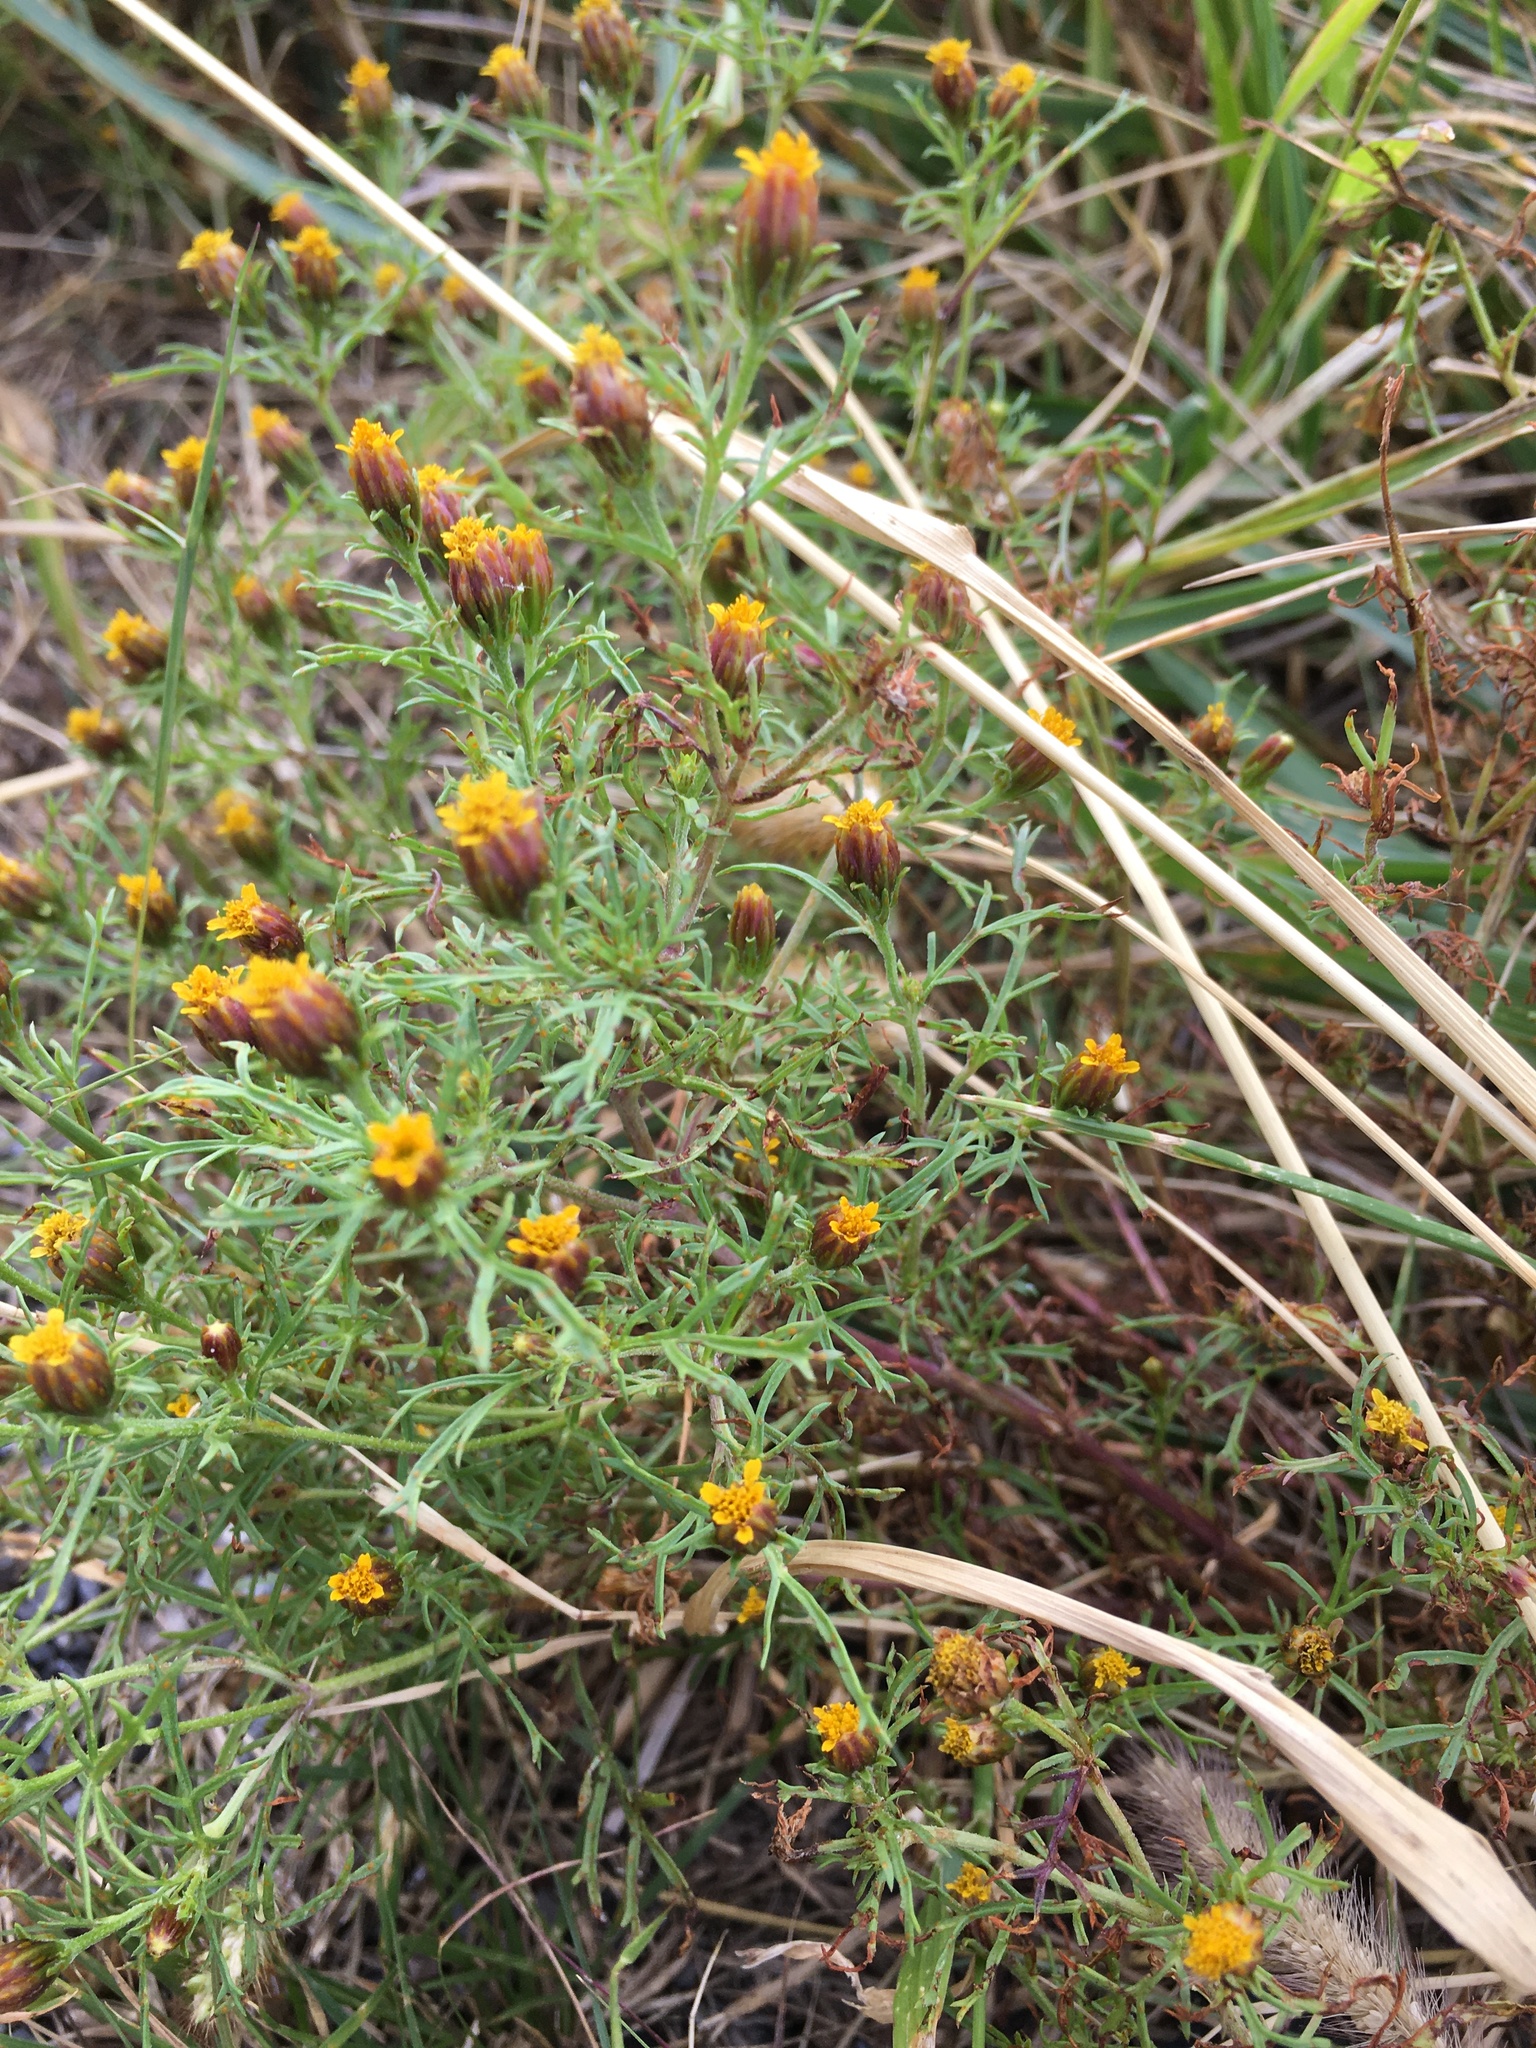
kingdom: Plantae
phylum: Tracheophyta
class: Magnoliopsida
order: Asterales
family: Asteraceae
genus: Dyssodia
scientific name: Dyssodia papposa
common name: Dogweed
